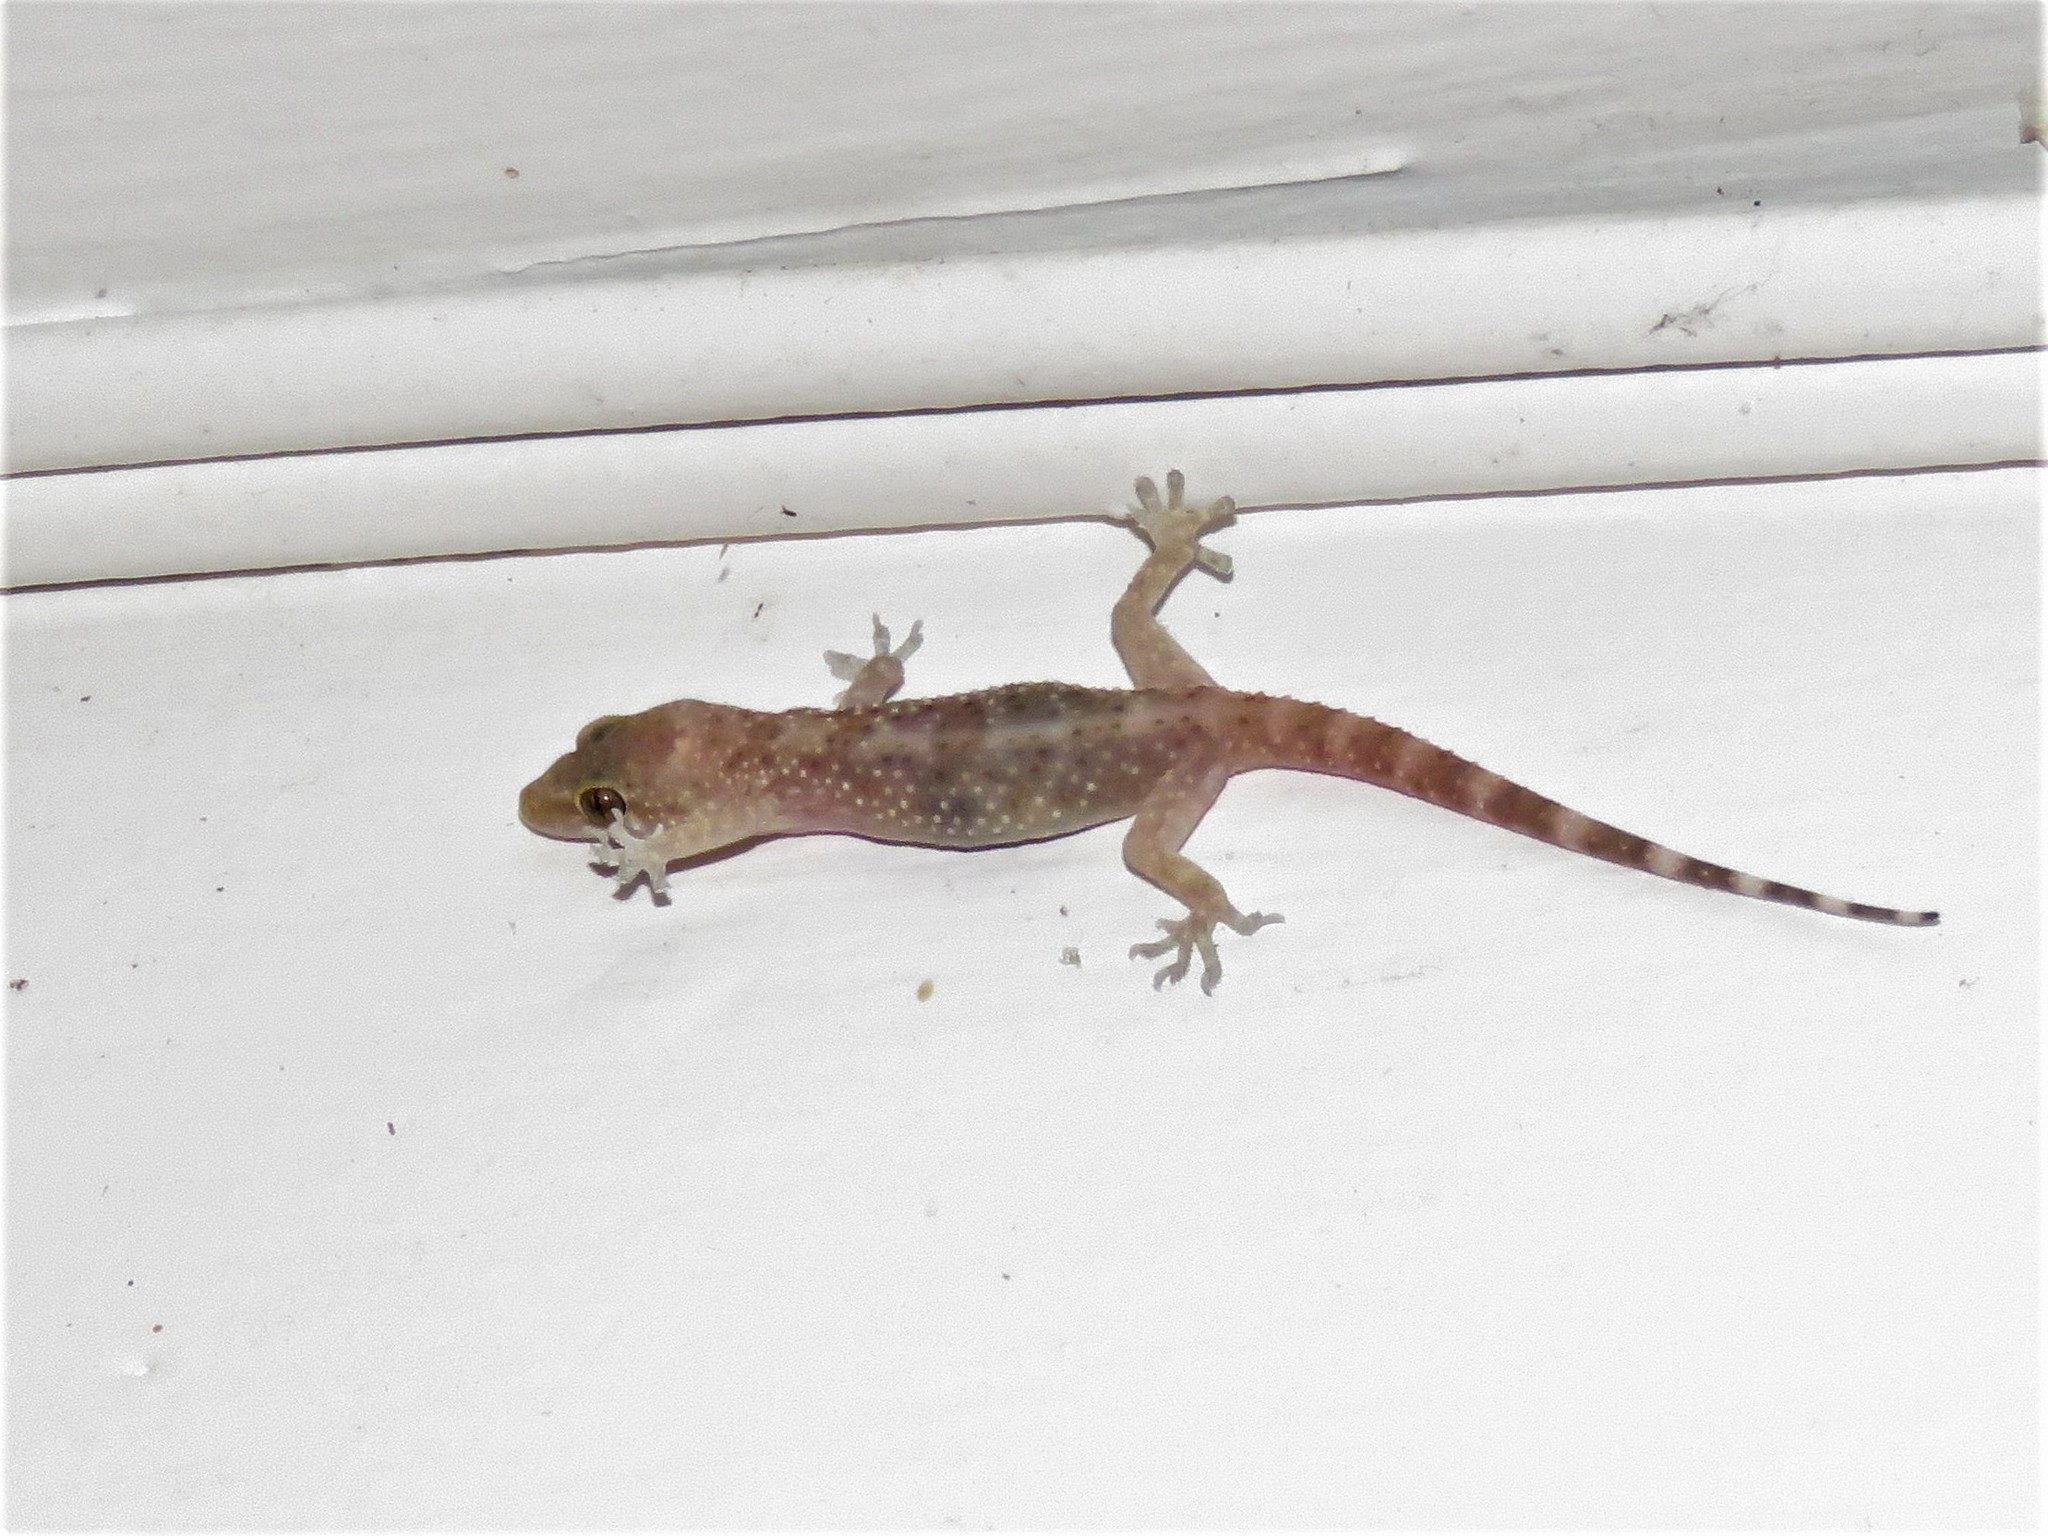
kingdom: Animalia
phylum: Chordata
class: Squamata
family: Gekkonidae
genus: Hemidactylus
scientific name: Hemidactylus turcicus
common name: Turkish gecko
